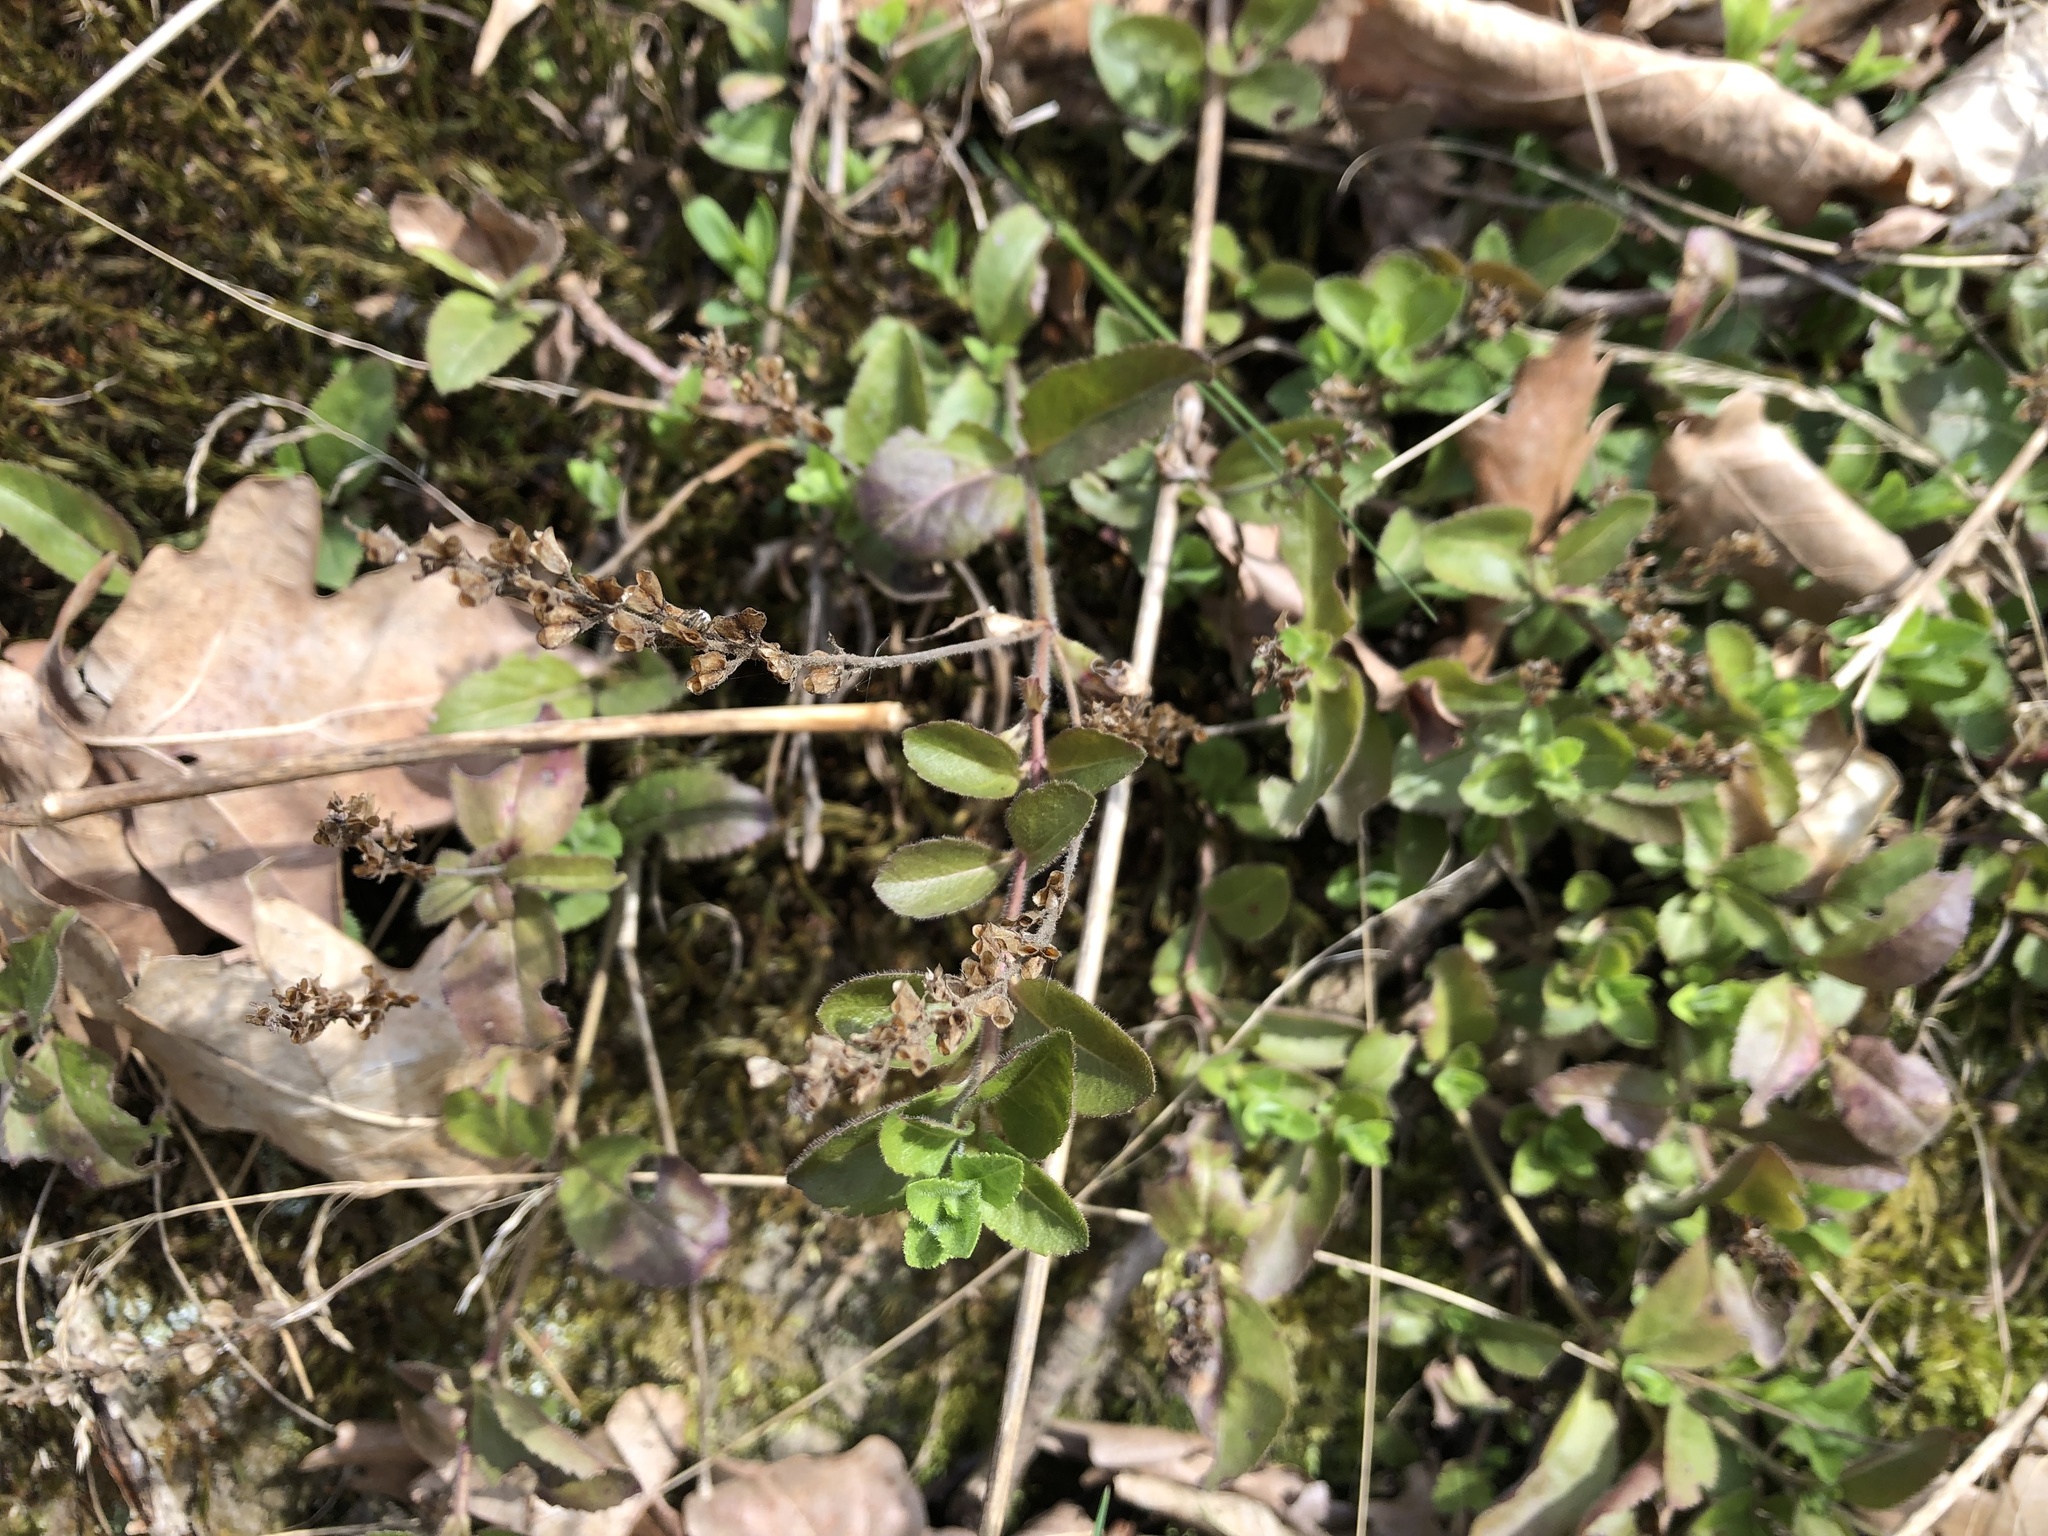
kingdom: Plantae
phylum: Tracheophyta
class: Magnoliopsida
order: Lamiales
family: Plantaginaceae
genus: Veronica
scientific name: Veronica officinalis
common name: Common speedwell
